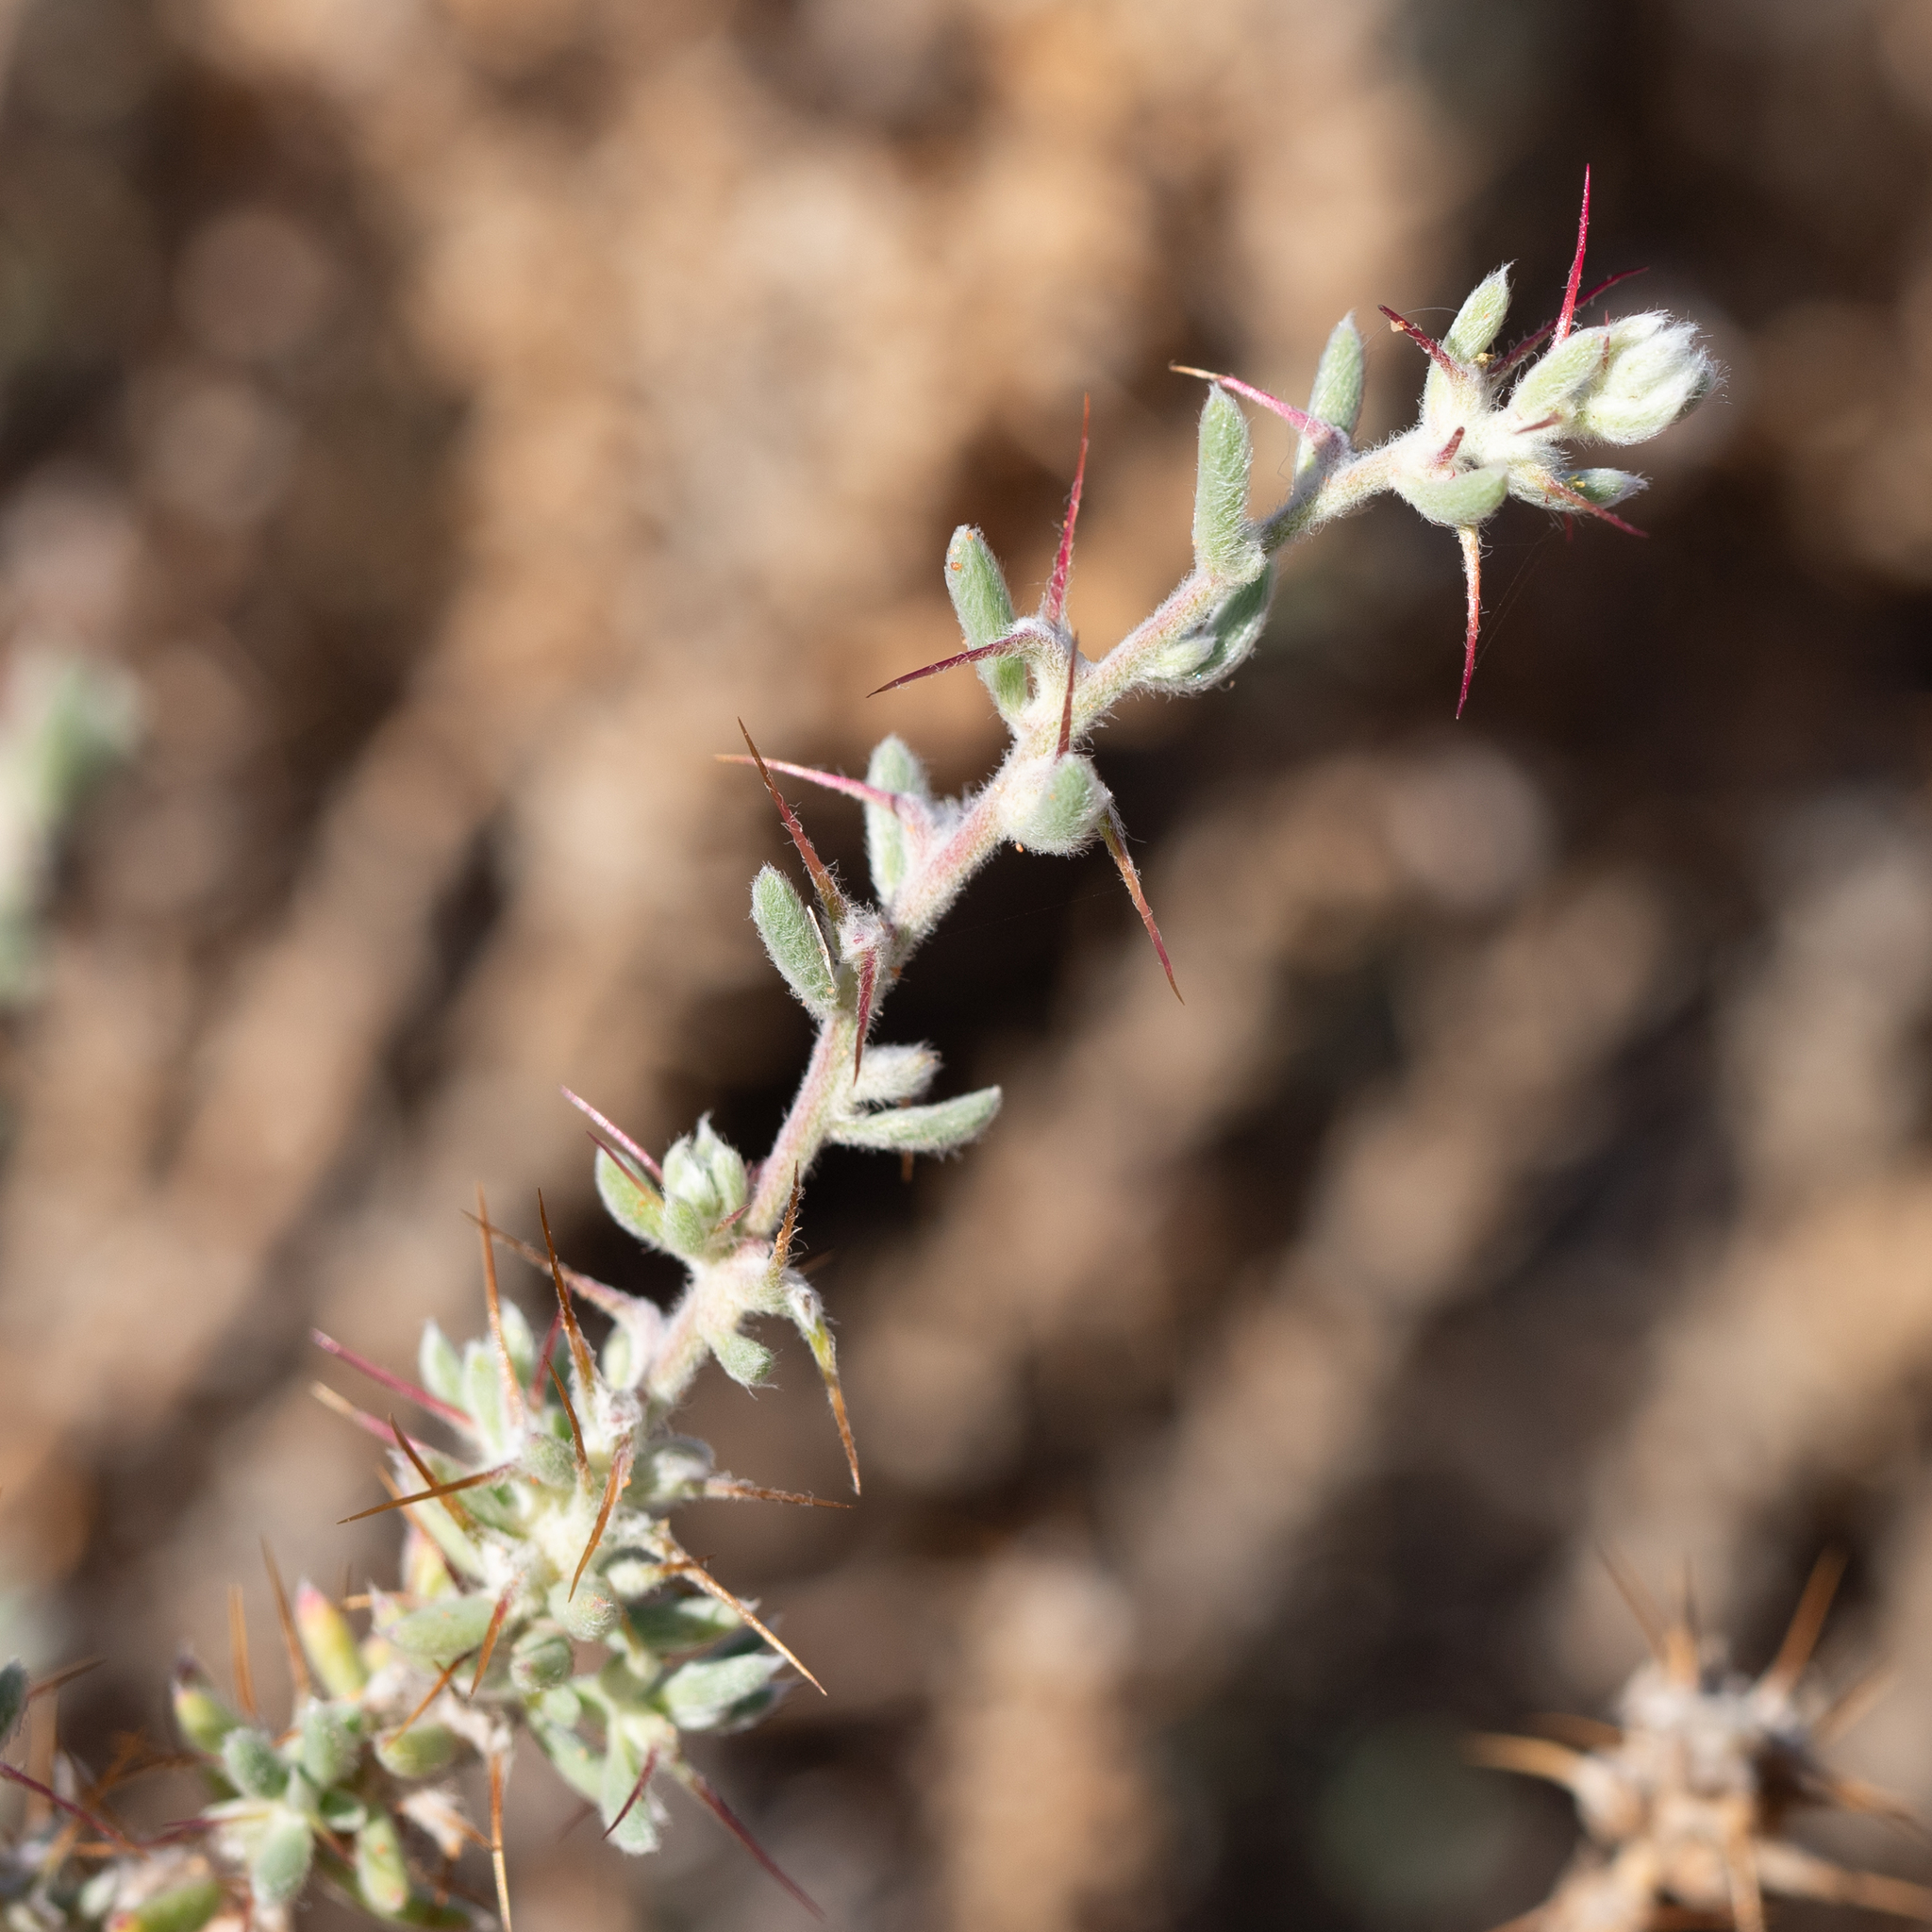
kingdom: Plantae
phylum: Tracheophyta
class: Magnoliopsida
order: Caryophyllales
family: Amaranthaceae
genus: Sclerolaena
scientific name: Sclerolaena obliquicuspis
